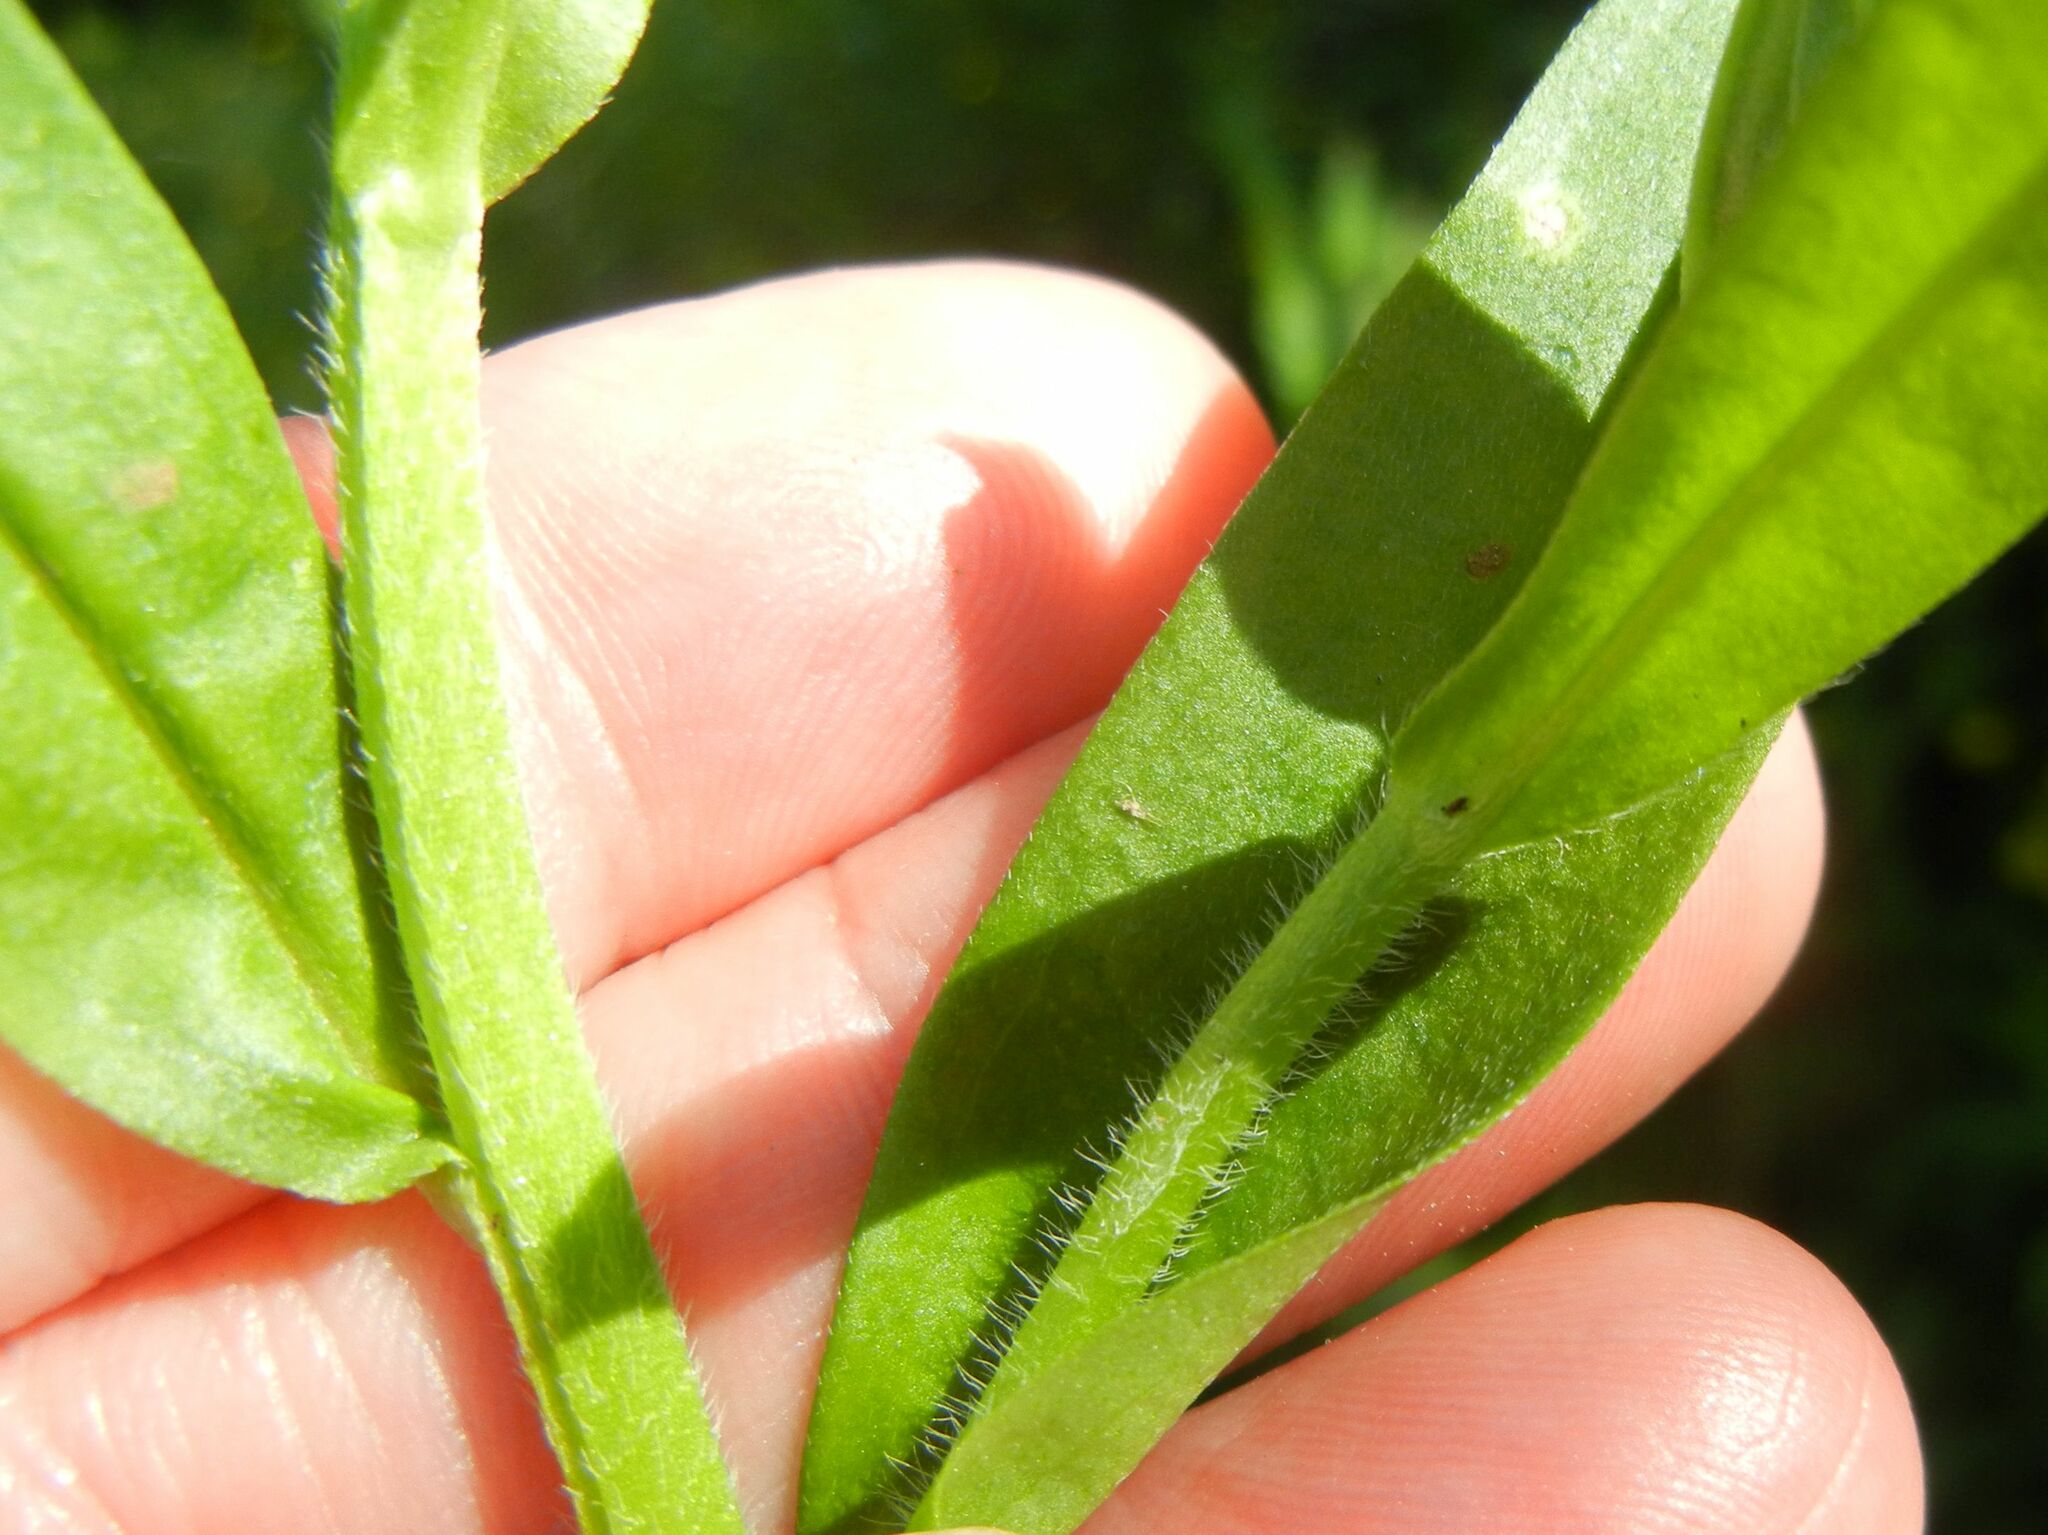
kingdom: Plantae
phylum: Tracheophyta
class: Magnoliopsida
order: Boraginales
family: Boraginaceae
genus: Myosotis
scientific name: Myosotis scorpioides
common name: Water forget-me-not
